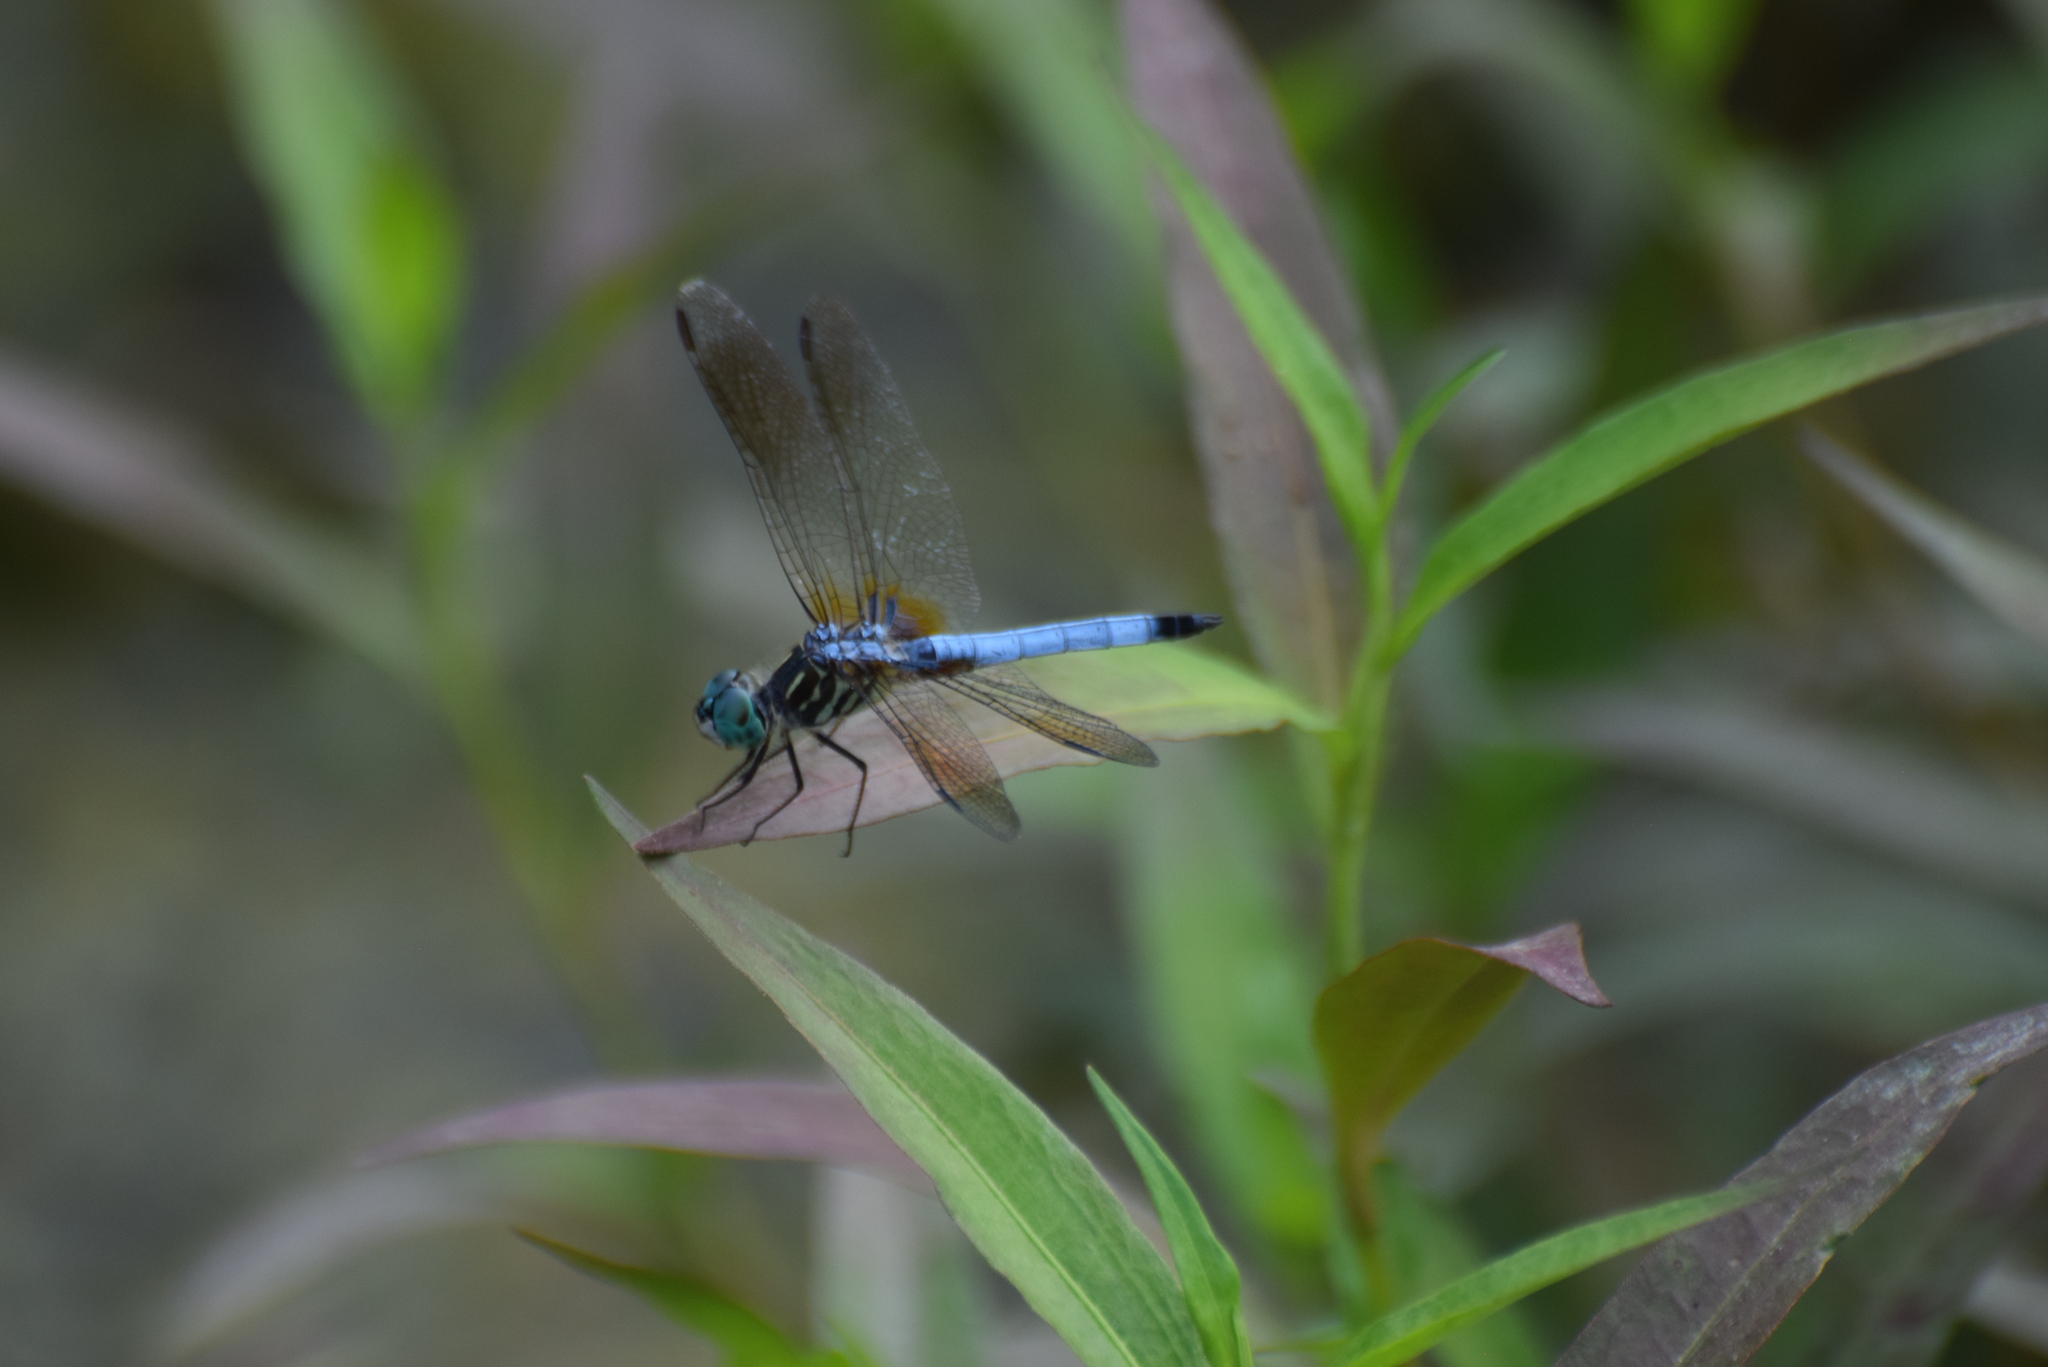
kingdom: Animalia
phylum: Arthropoda
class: Insecta
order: Odonata
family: Libellulidae
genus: Pachydiplax
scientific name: Pachydiplax longipennis
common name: Blue dasher
